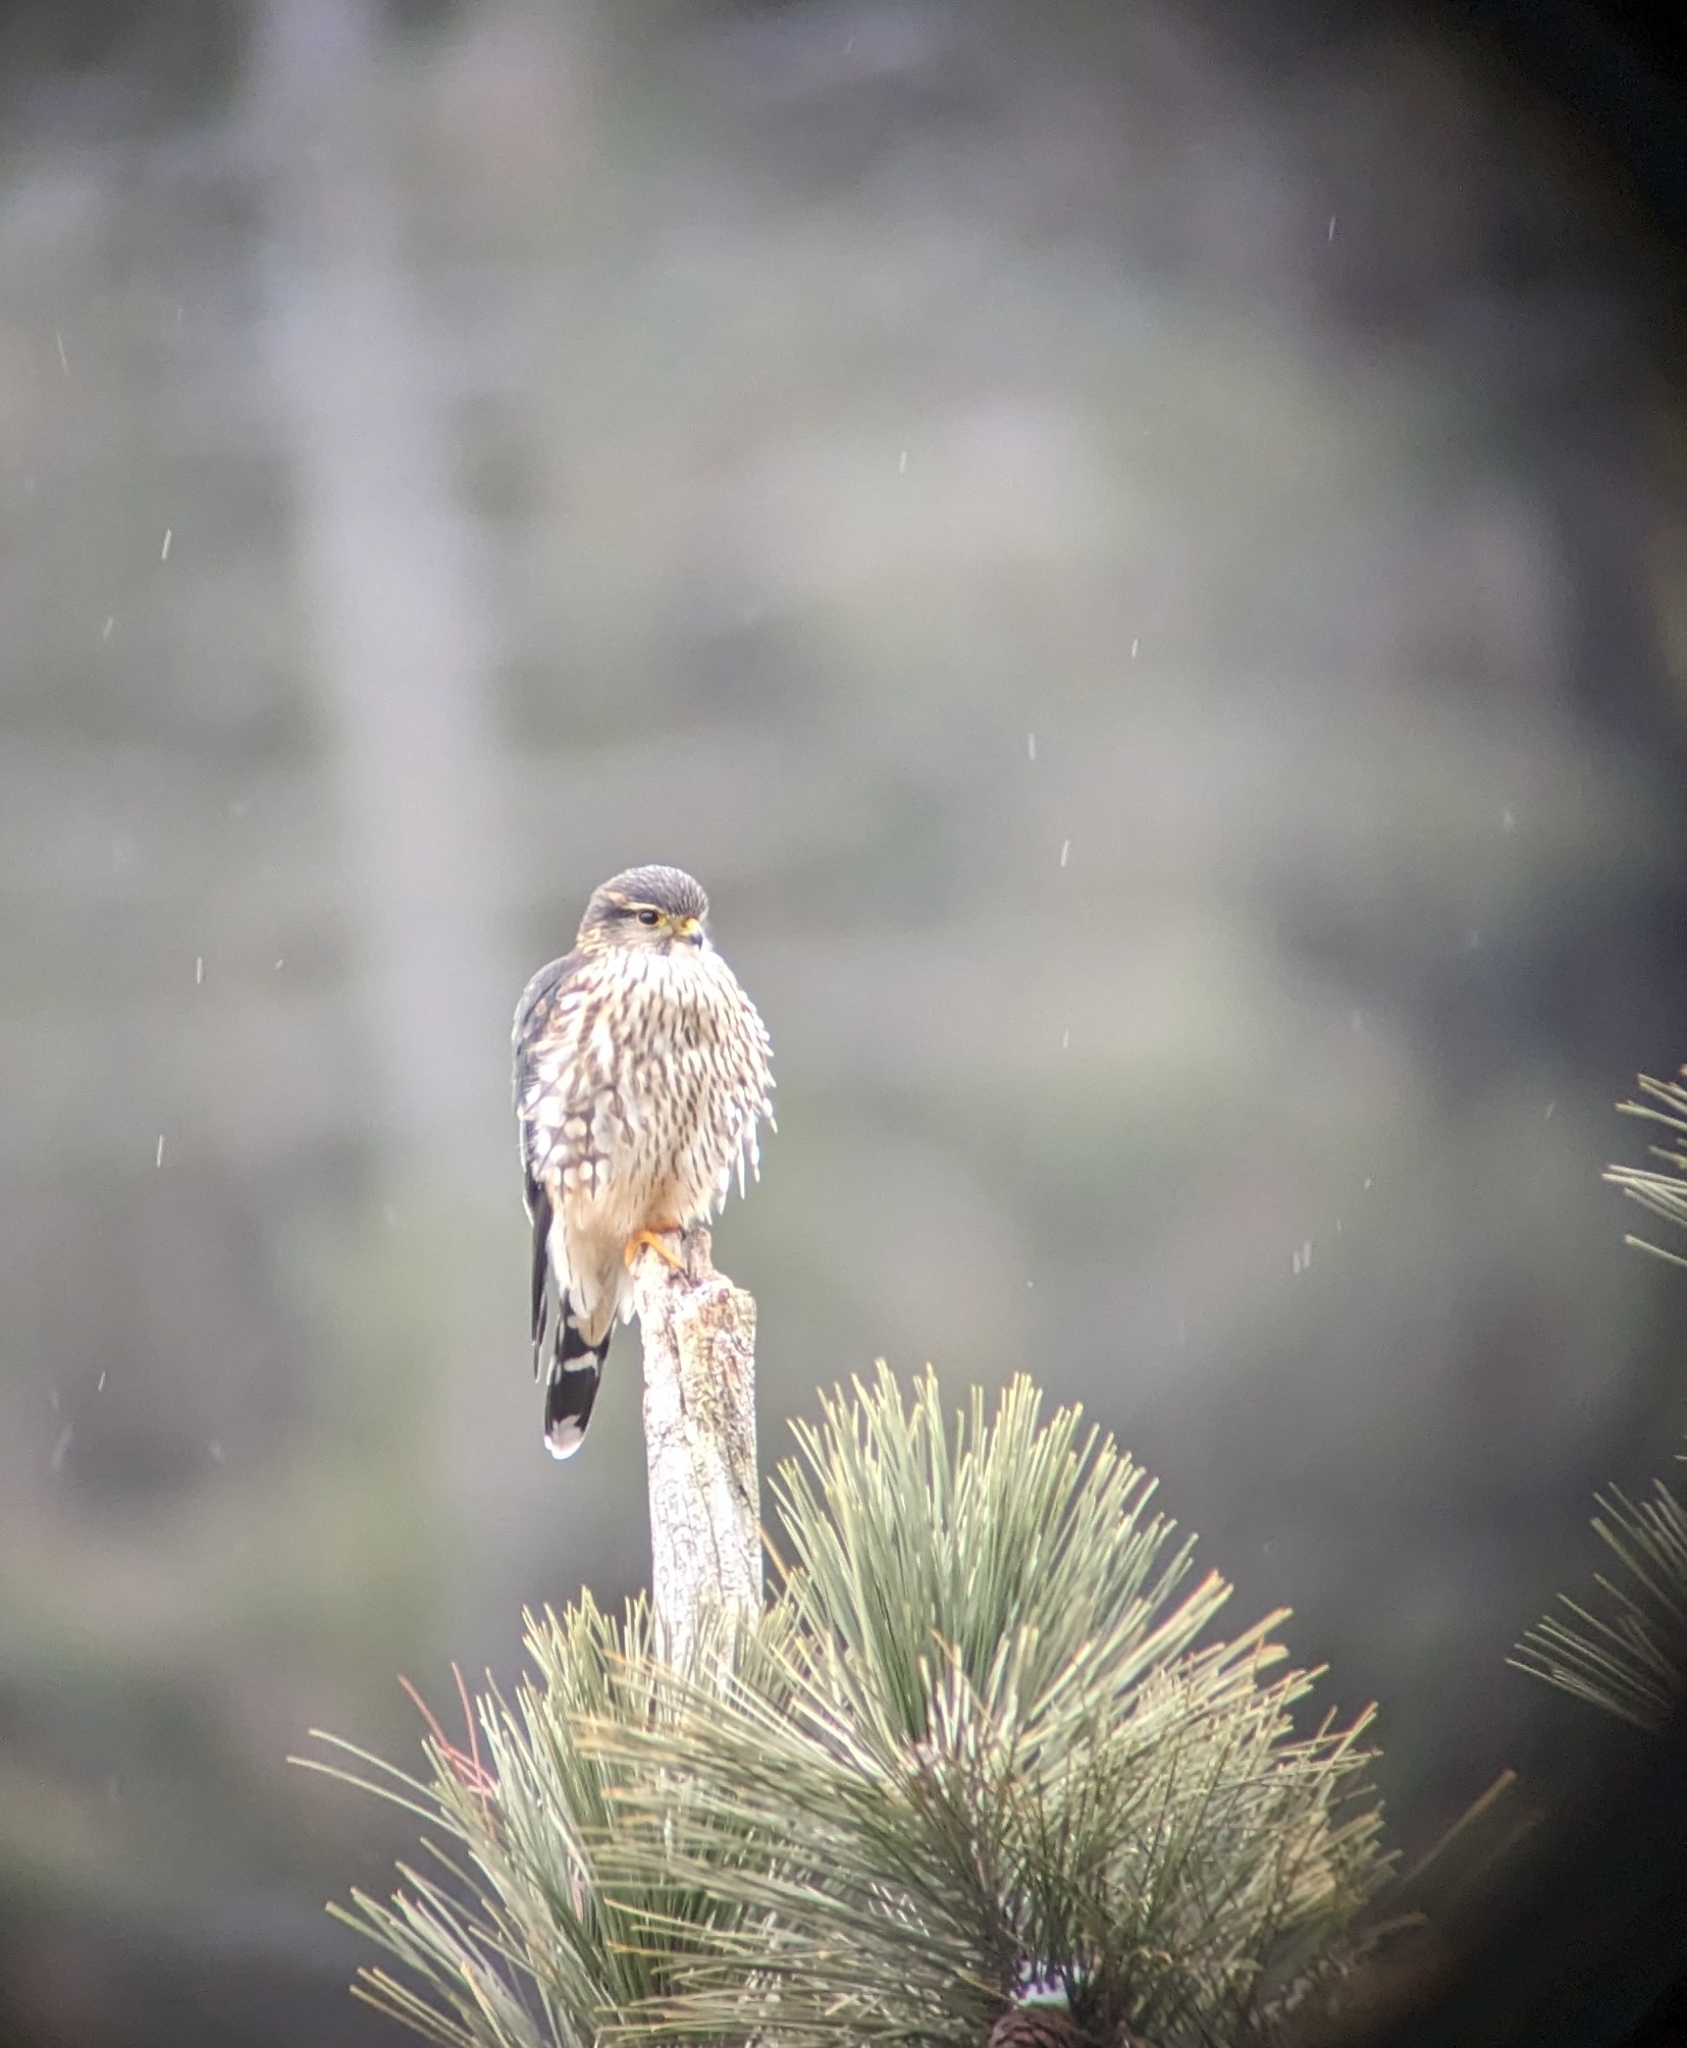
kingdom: Animalia
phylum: Chordata
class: Aves
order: Falconiformes
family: Falconidae
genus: Falco
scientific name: Falco columbarius
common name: Merlin
